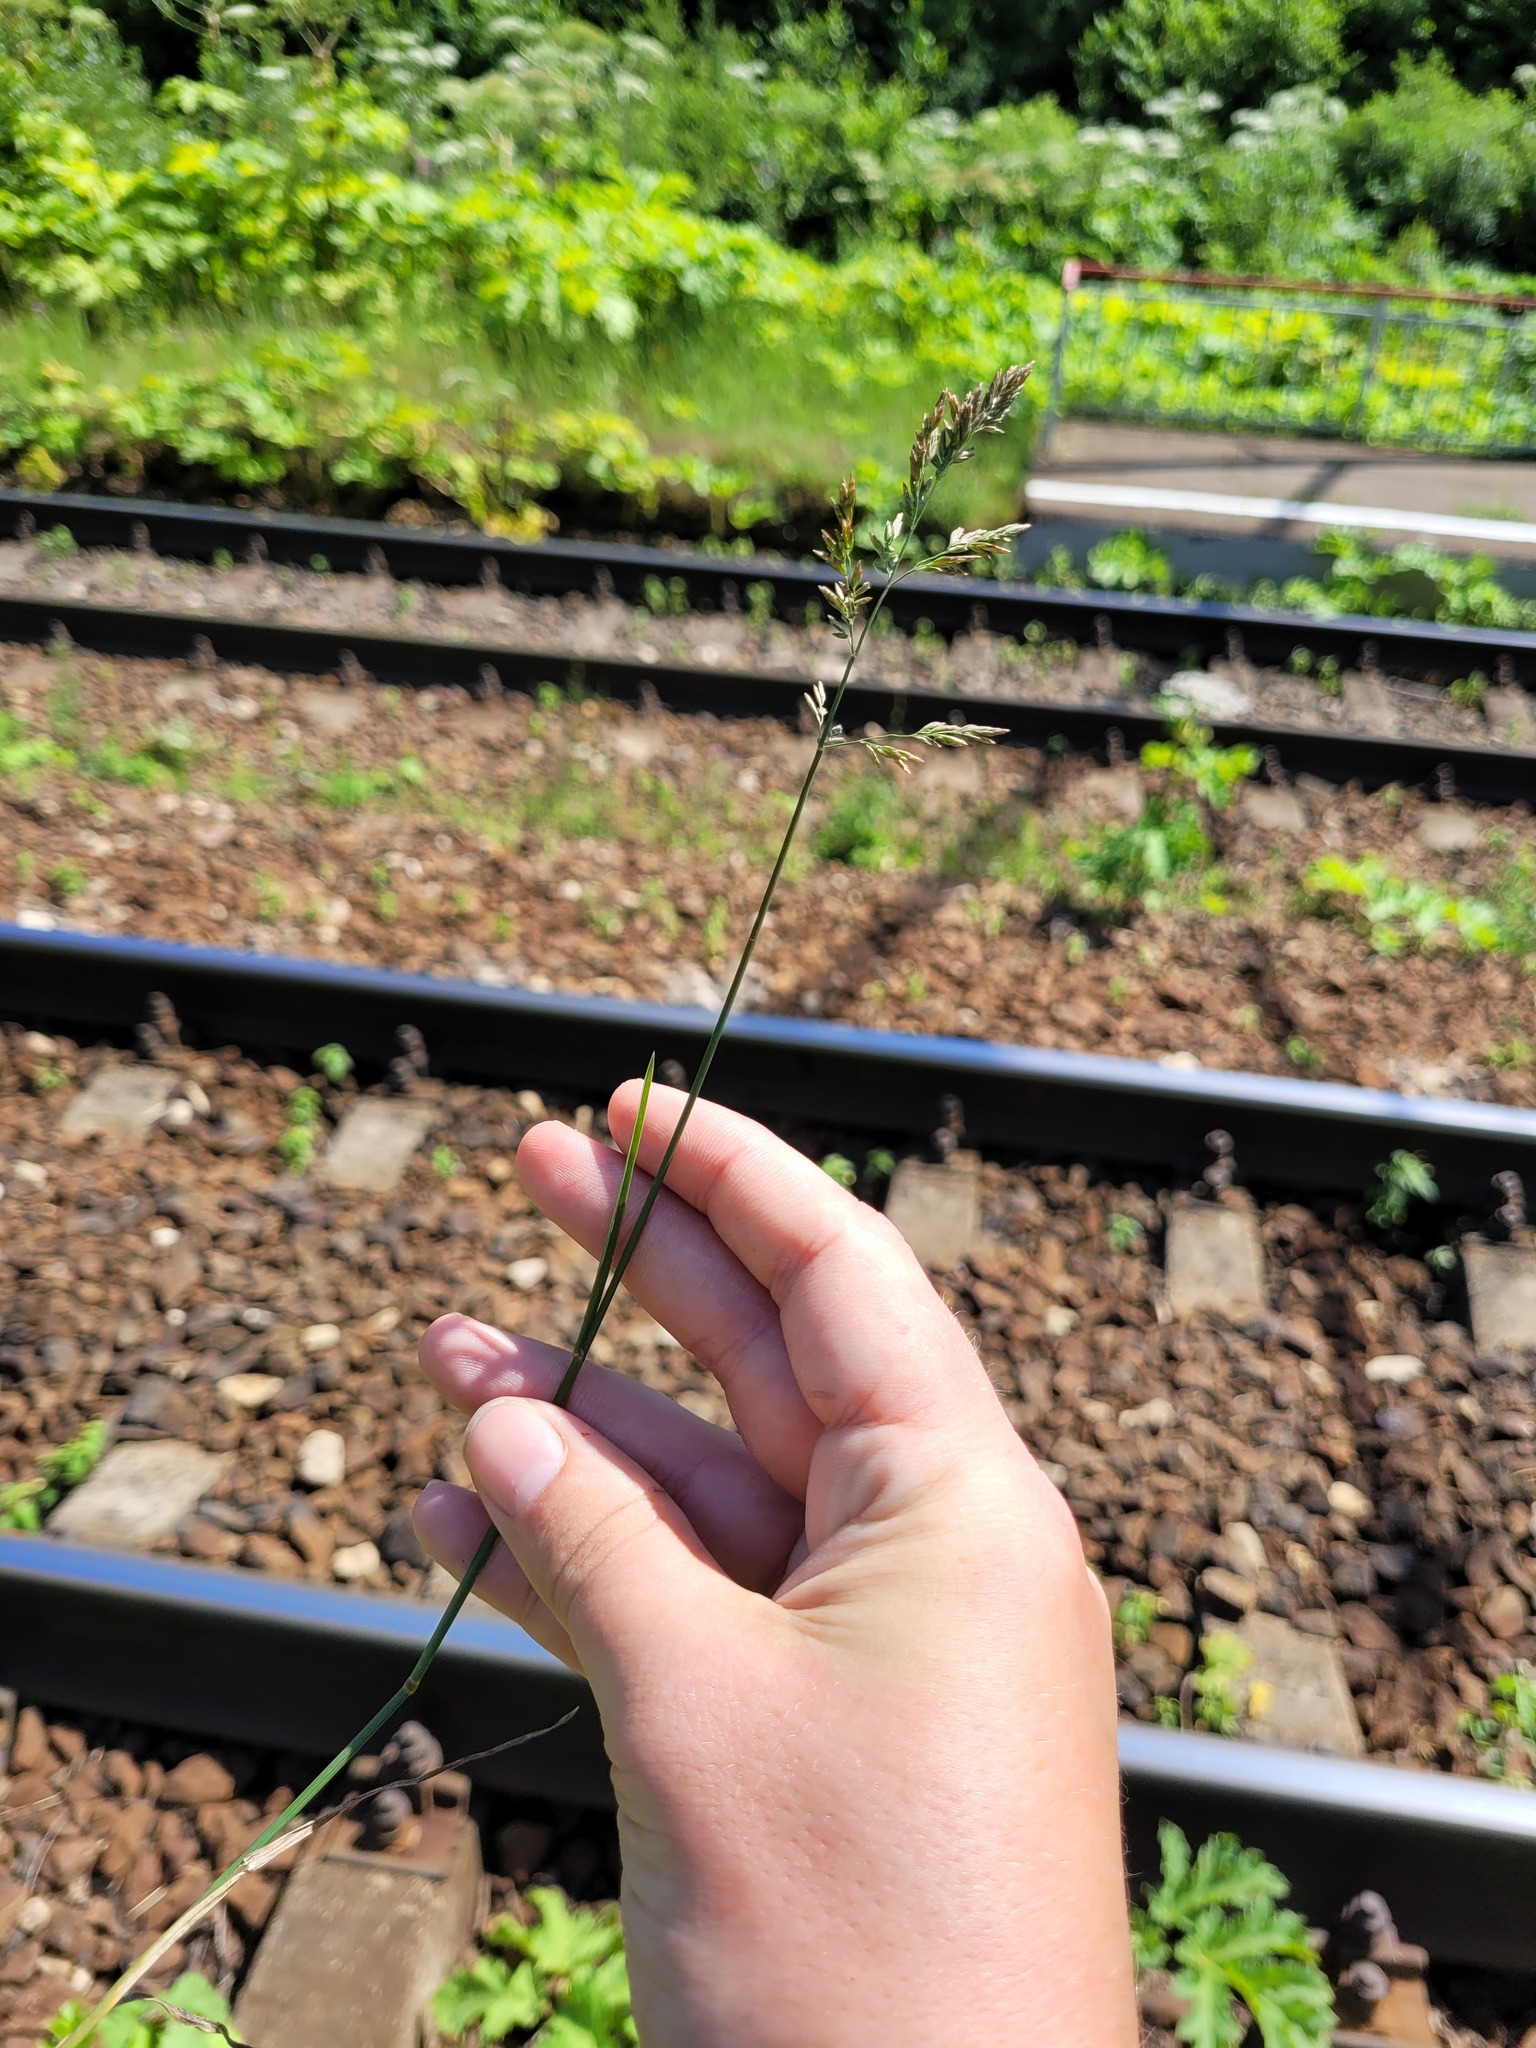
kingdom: Plantae
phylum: Tracheophyta
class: Liliopsida
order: Poales
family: Poaceae
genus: Poa
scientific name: Poa compressa
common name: Canada bluegrass
